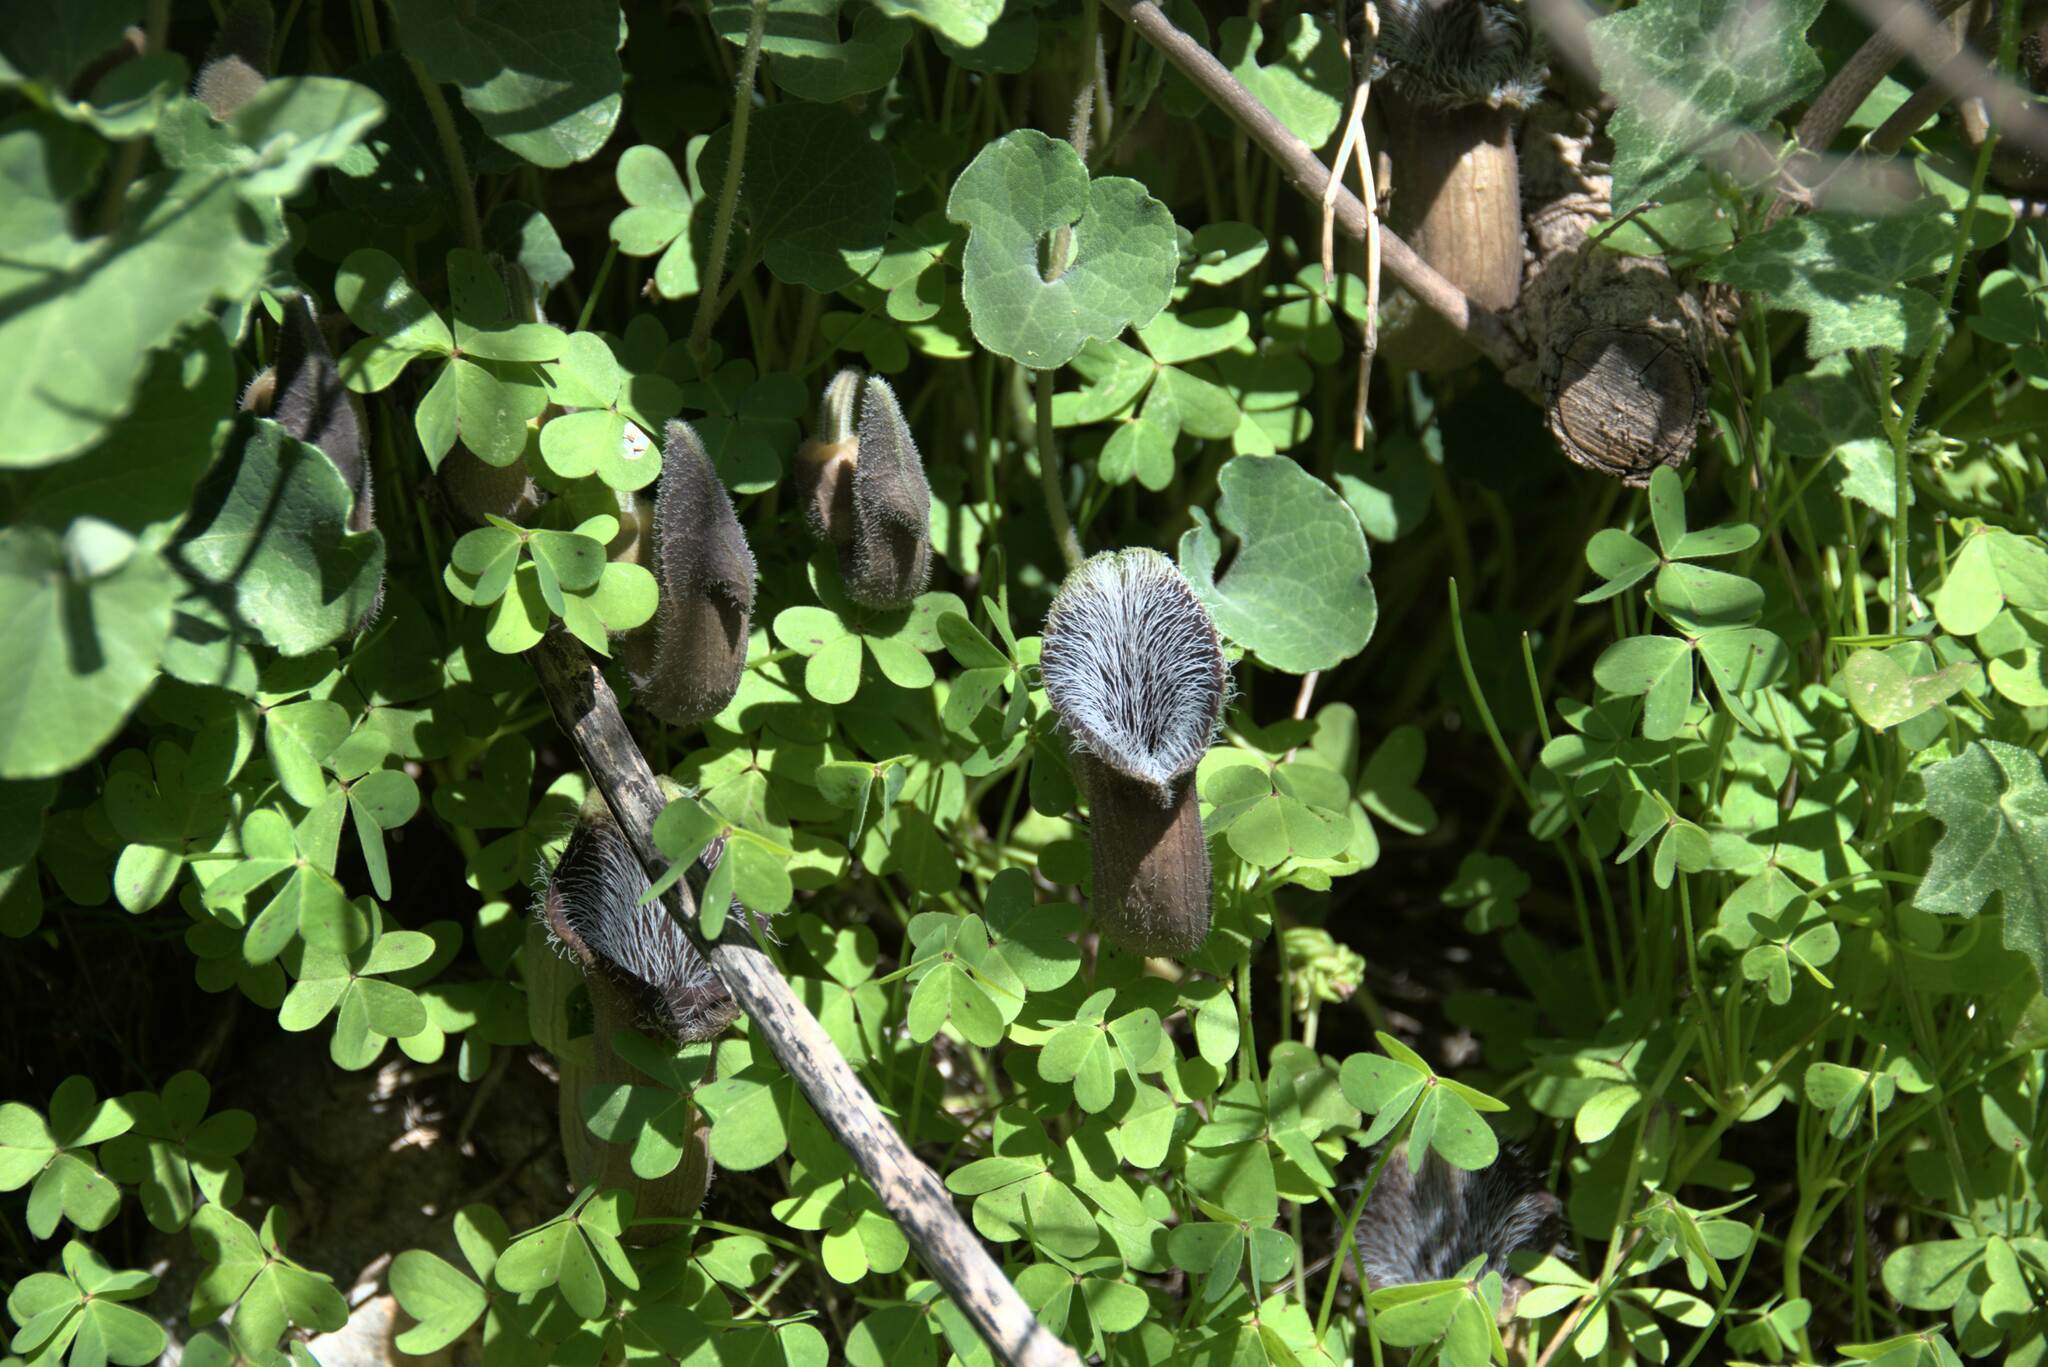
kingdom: Plantae
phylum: Tracheophyta
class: Magnoliopsida
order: Piperales
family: Aristolochiaceae
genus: Aristolochia
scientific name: Aristolochia cretica
